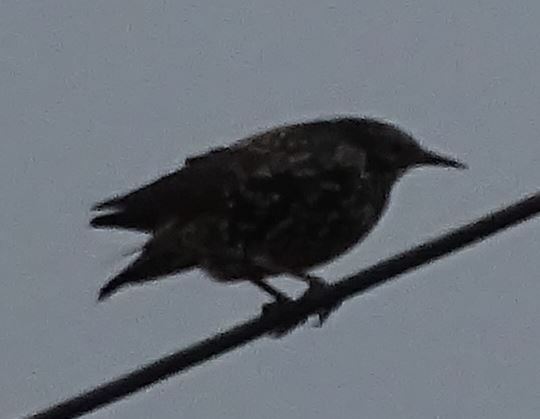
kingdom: Animalia
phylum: Chordata
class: Aves
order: Passeriformes
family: Sturnidae
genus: Sturnus
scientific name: Sturnus vulgaris
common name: Common starling
